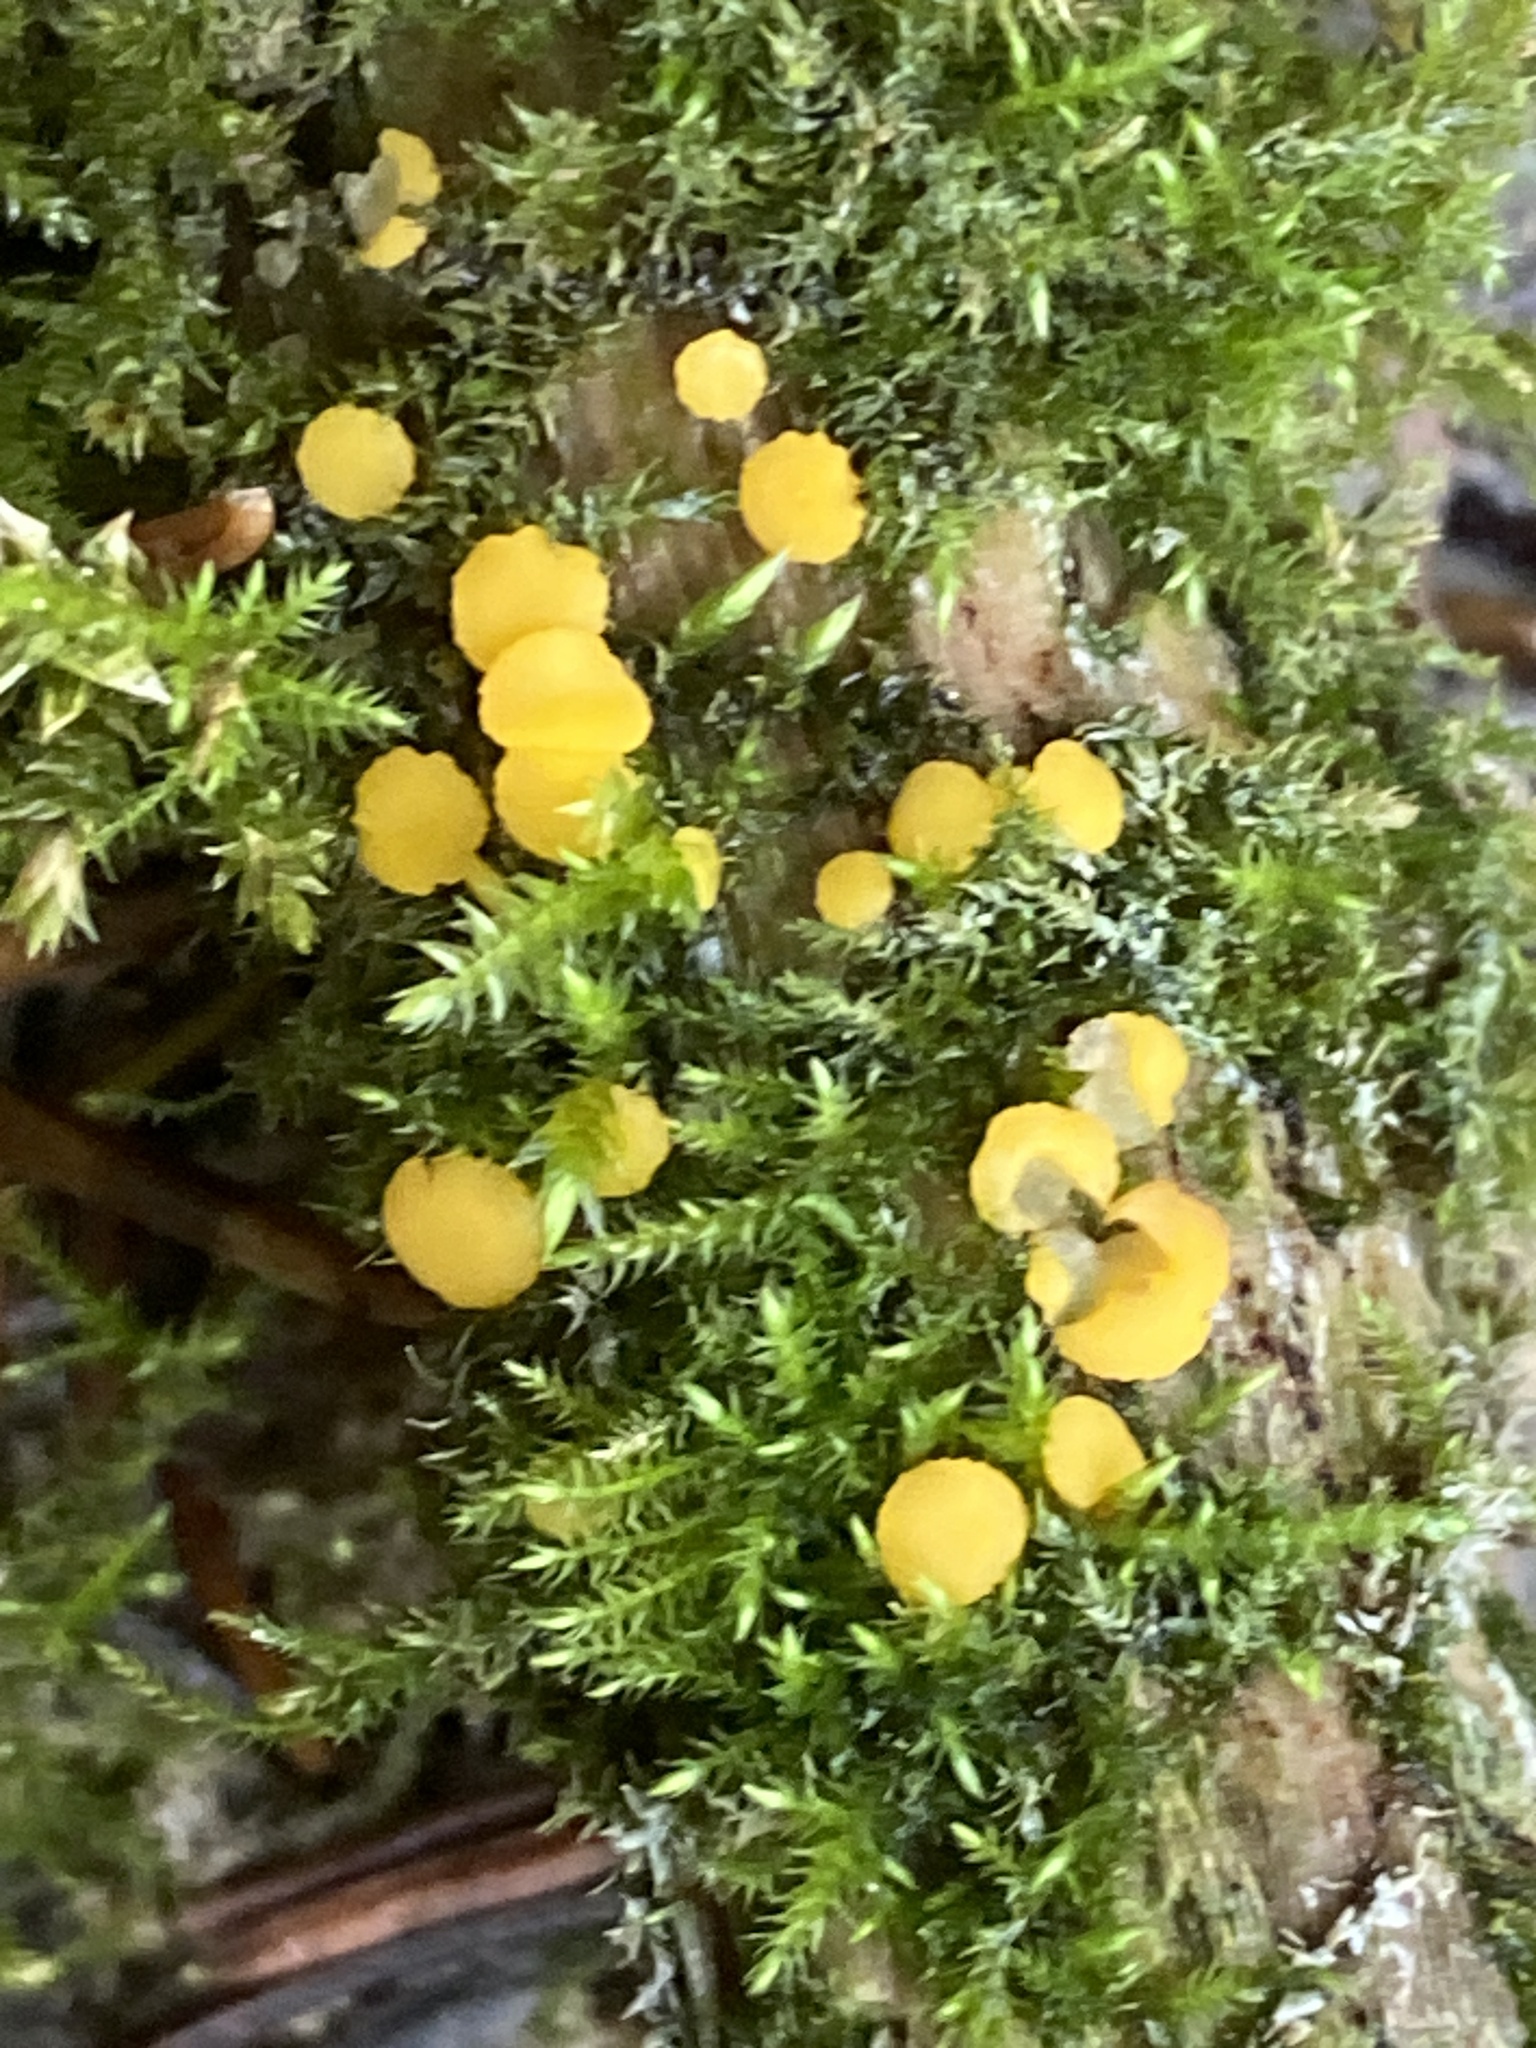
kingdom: Fungi
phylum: Ascomycota
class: Leotiomycetes
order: Helotiales
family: Pezizellaceae
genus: Calycina
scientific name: Calycina citrina
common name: Yellow fairy cups
